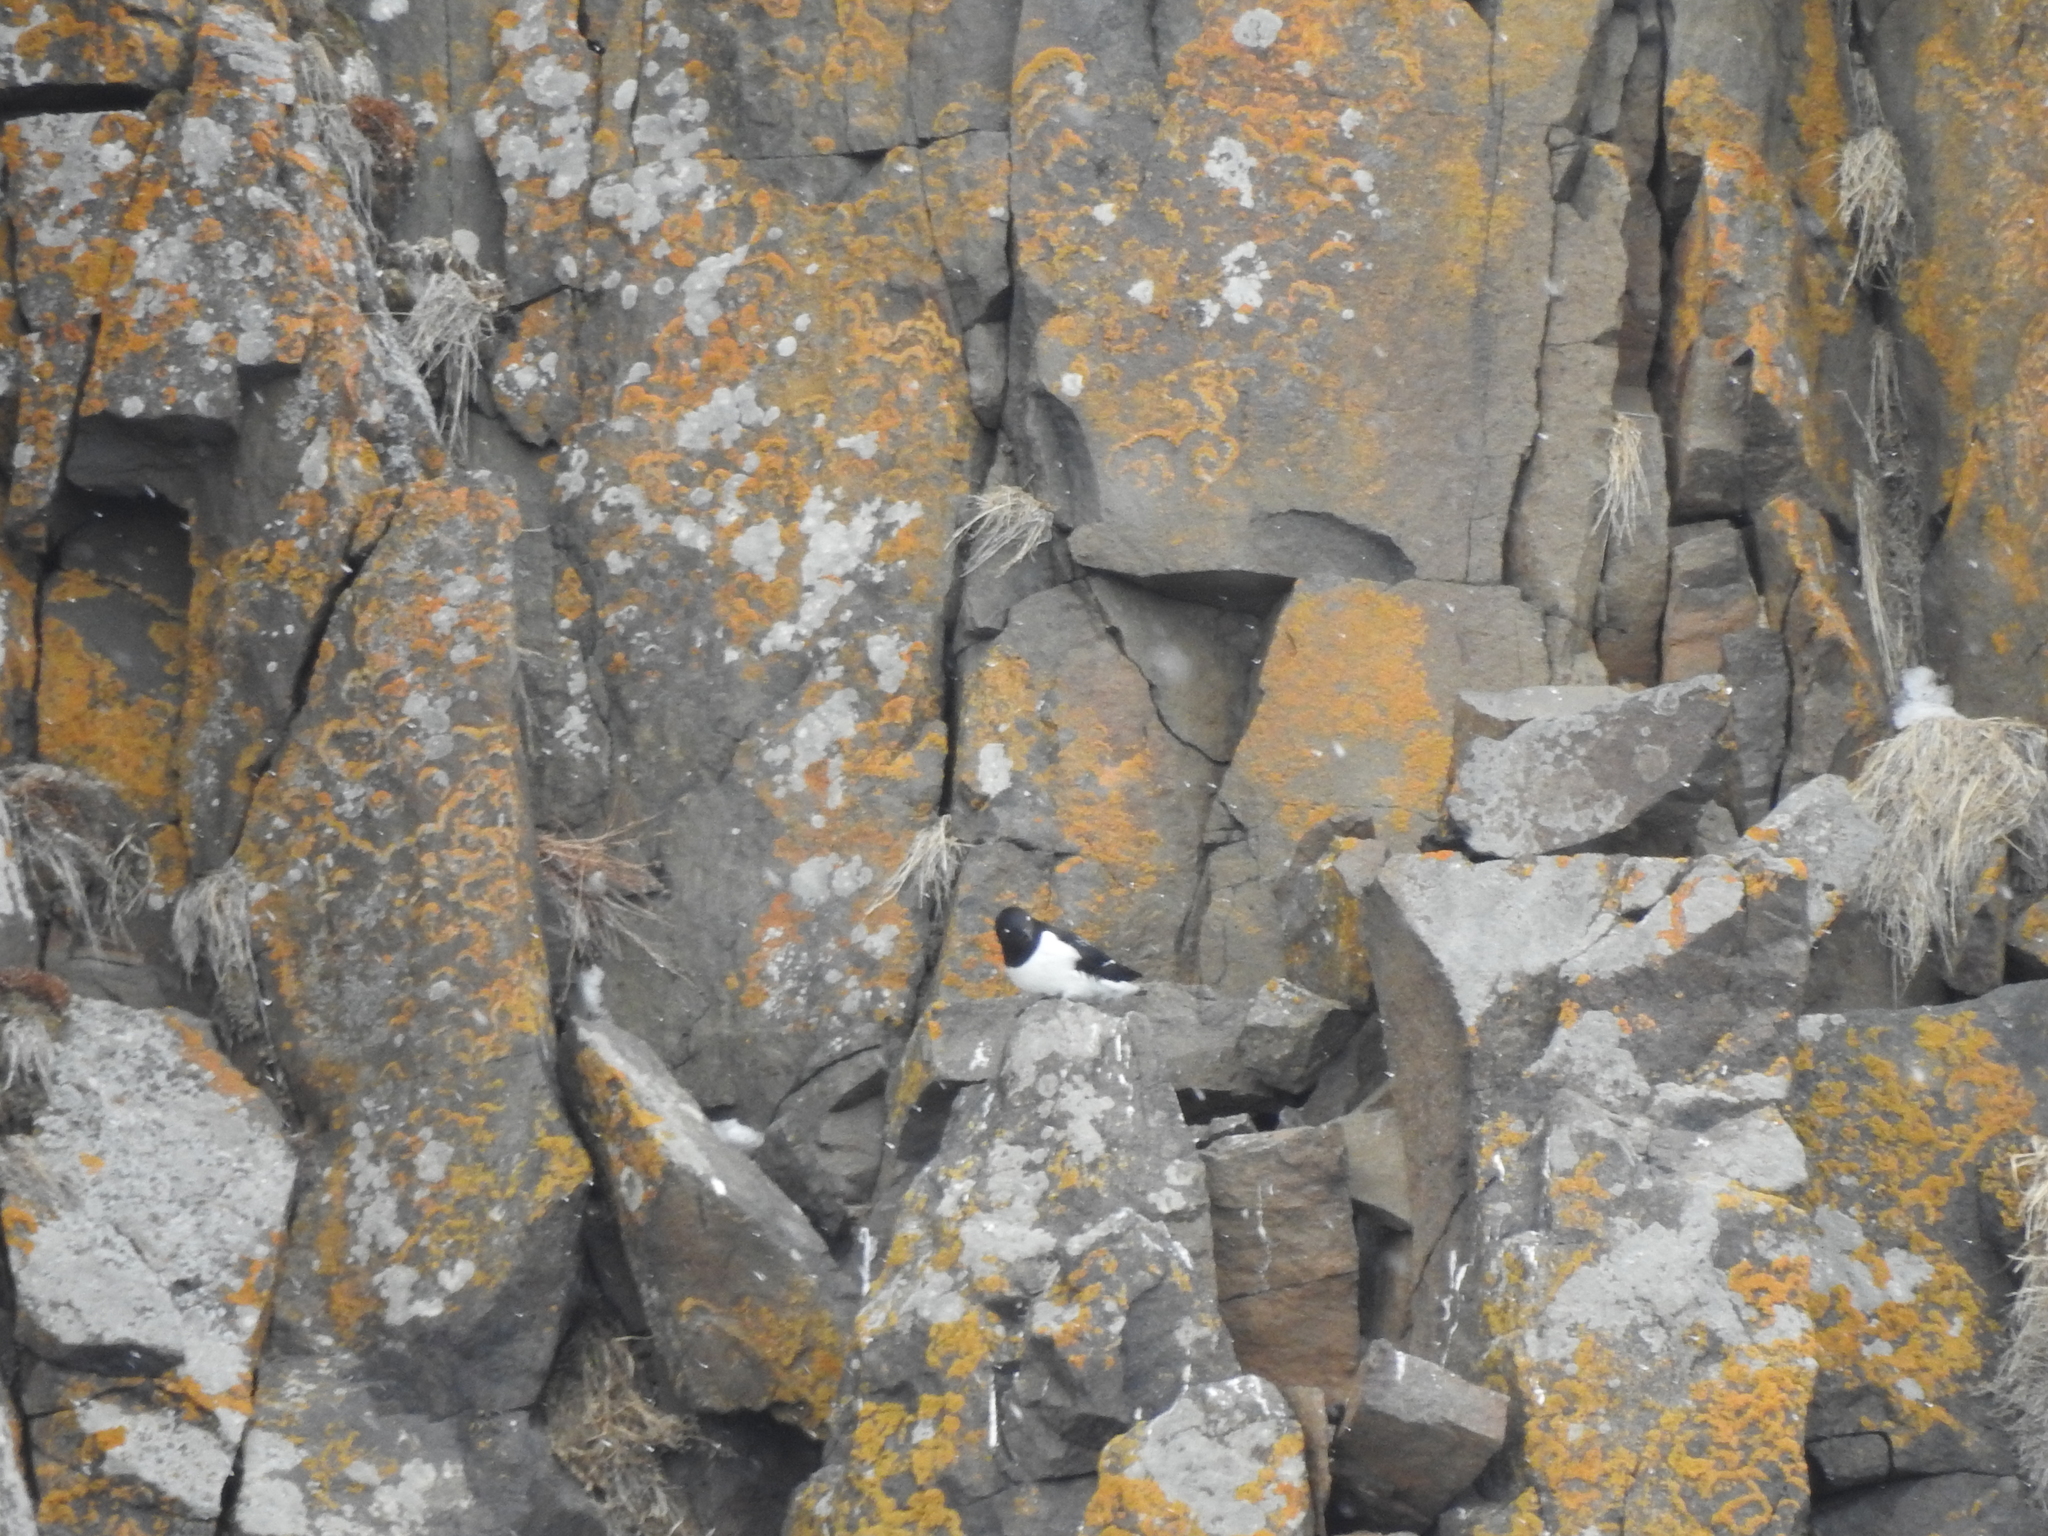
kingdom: Animalia
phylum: Chordata
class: Aves
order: Charadriiformes
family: Alcidae
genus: Alle
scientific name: Alle alle
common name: Little auk
